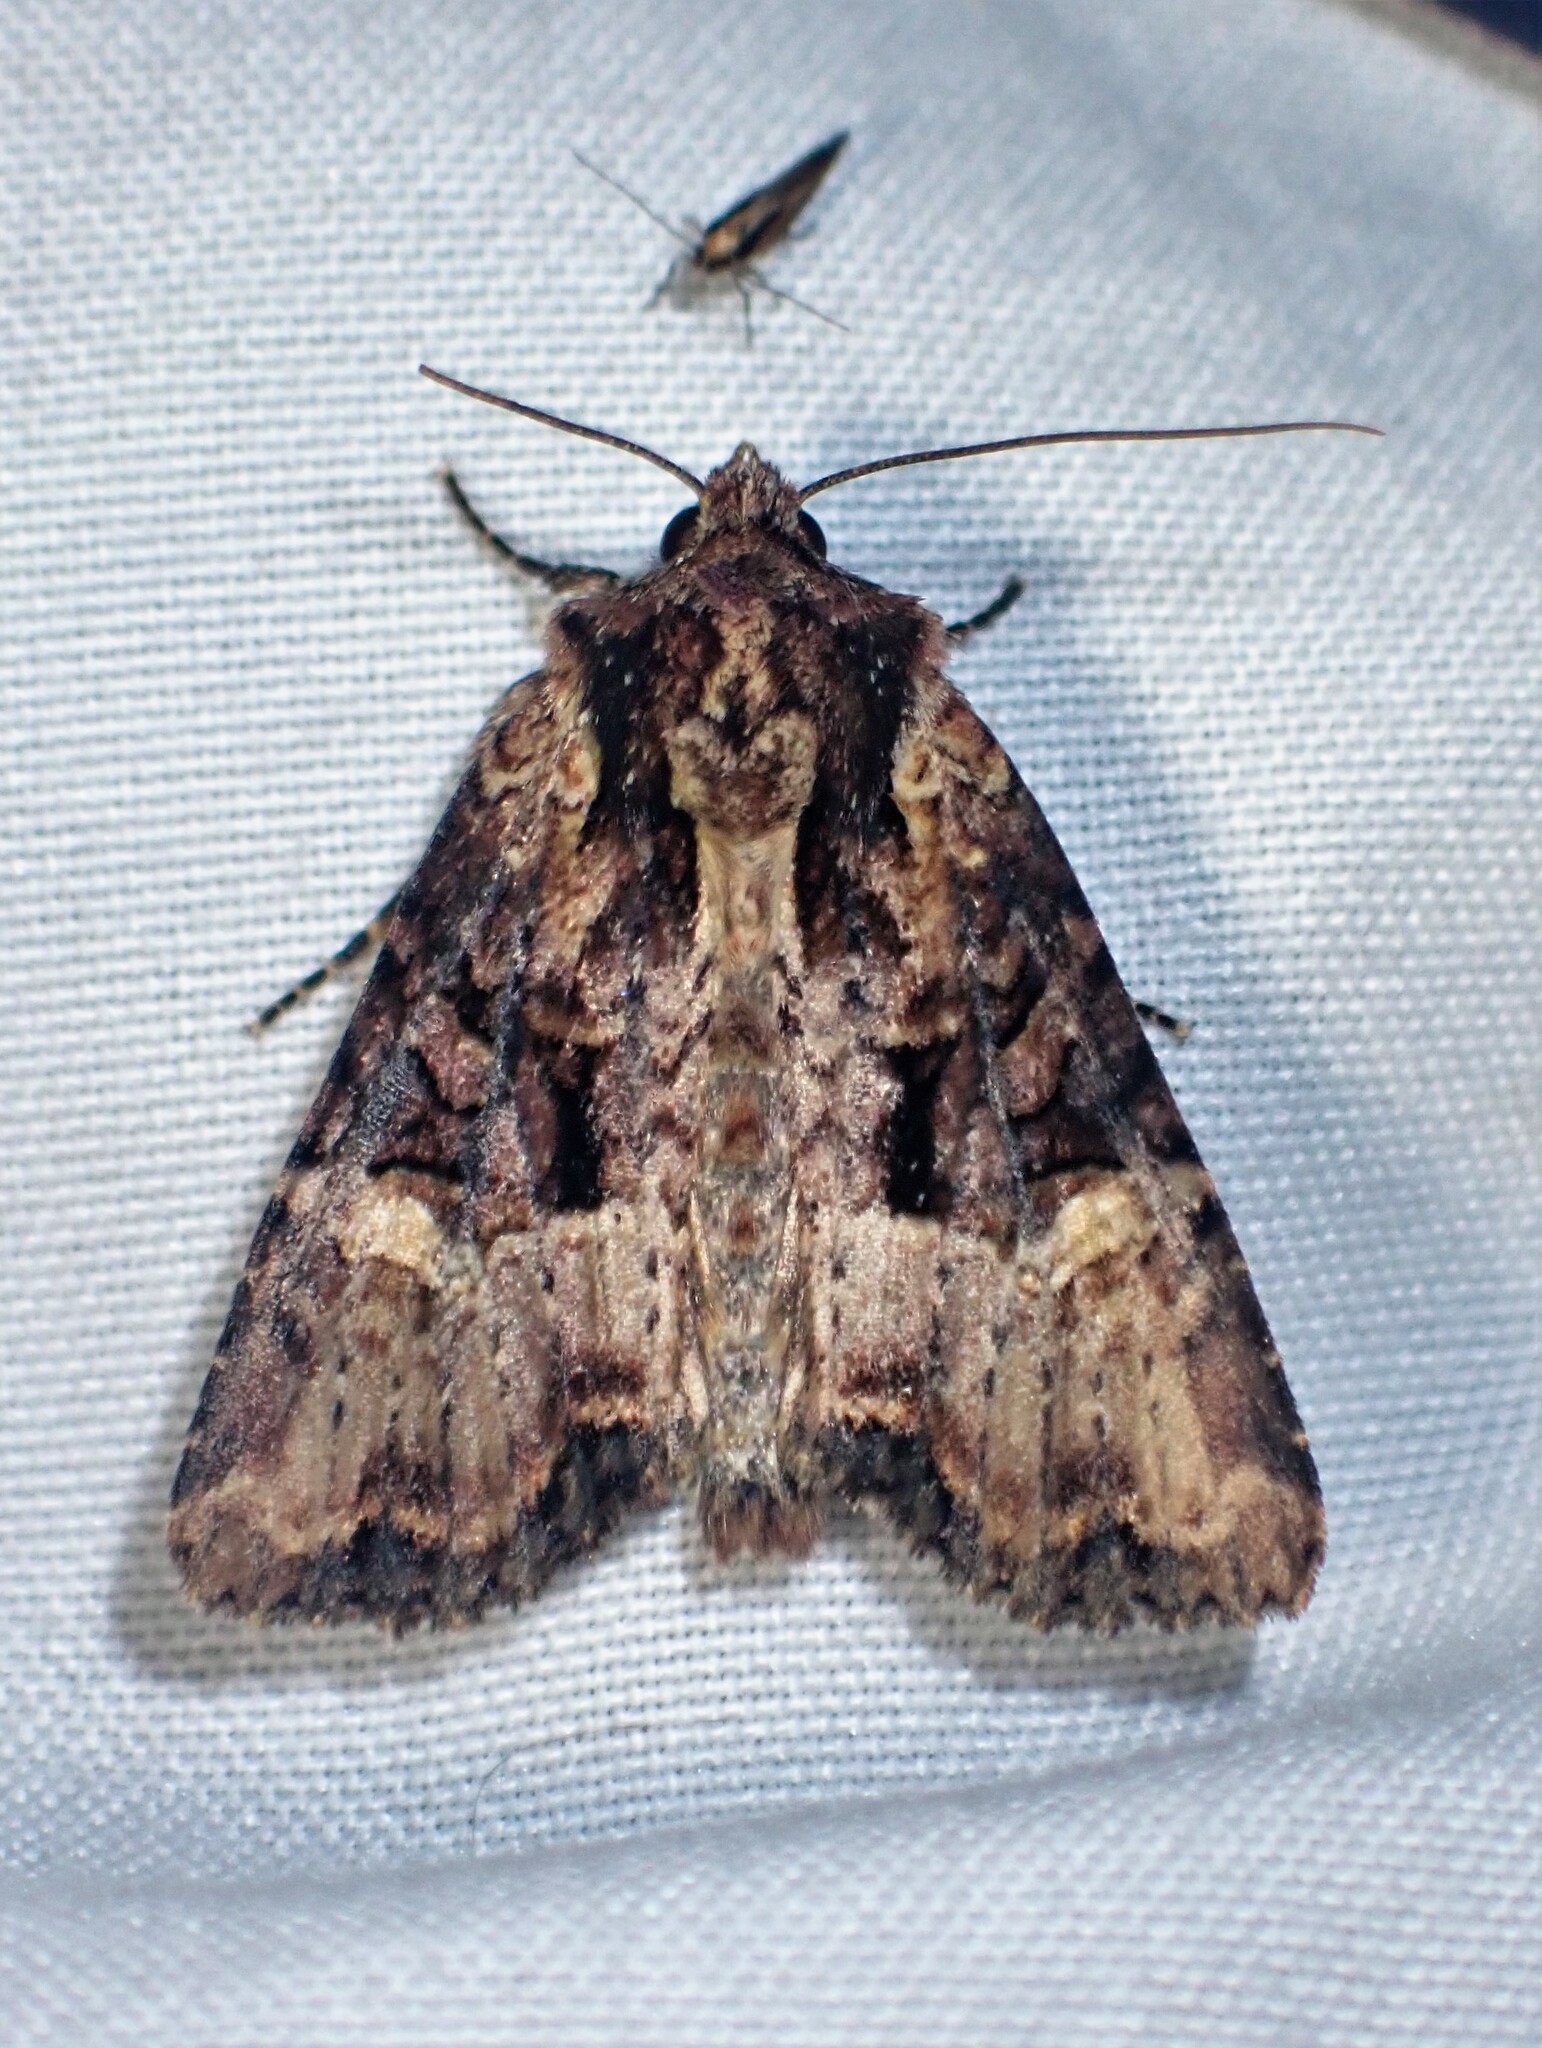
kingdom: Animalia
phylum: Arthropoda
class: Insecta
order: Lepidoptera
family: Noctuidae
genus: Mesapamea
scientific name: Mesapamea storai
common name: Owlet moth
